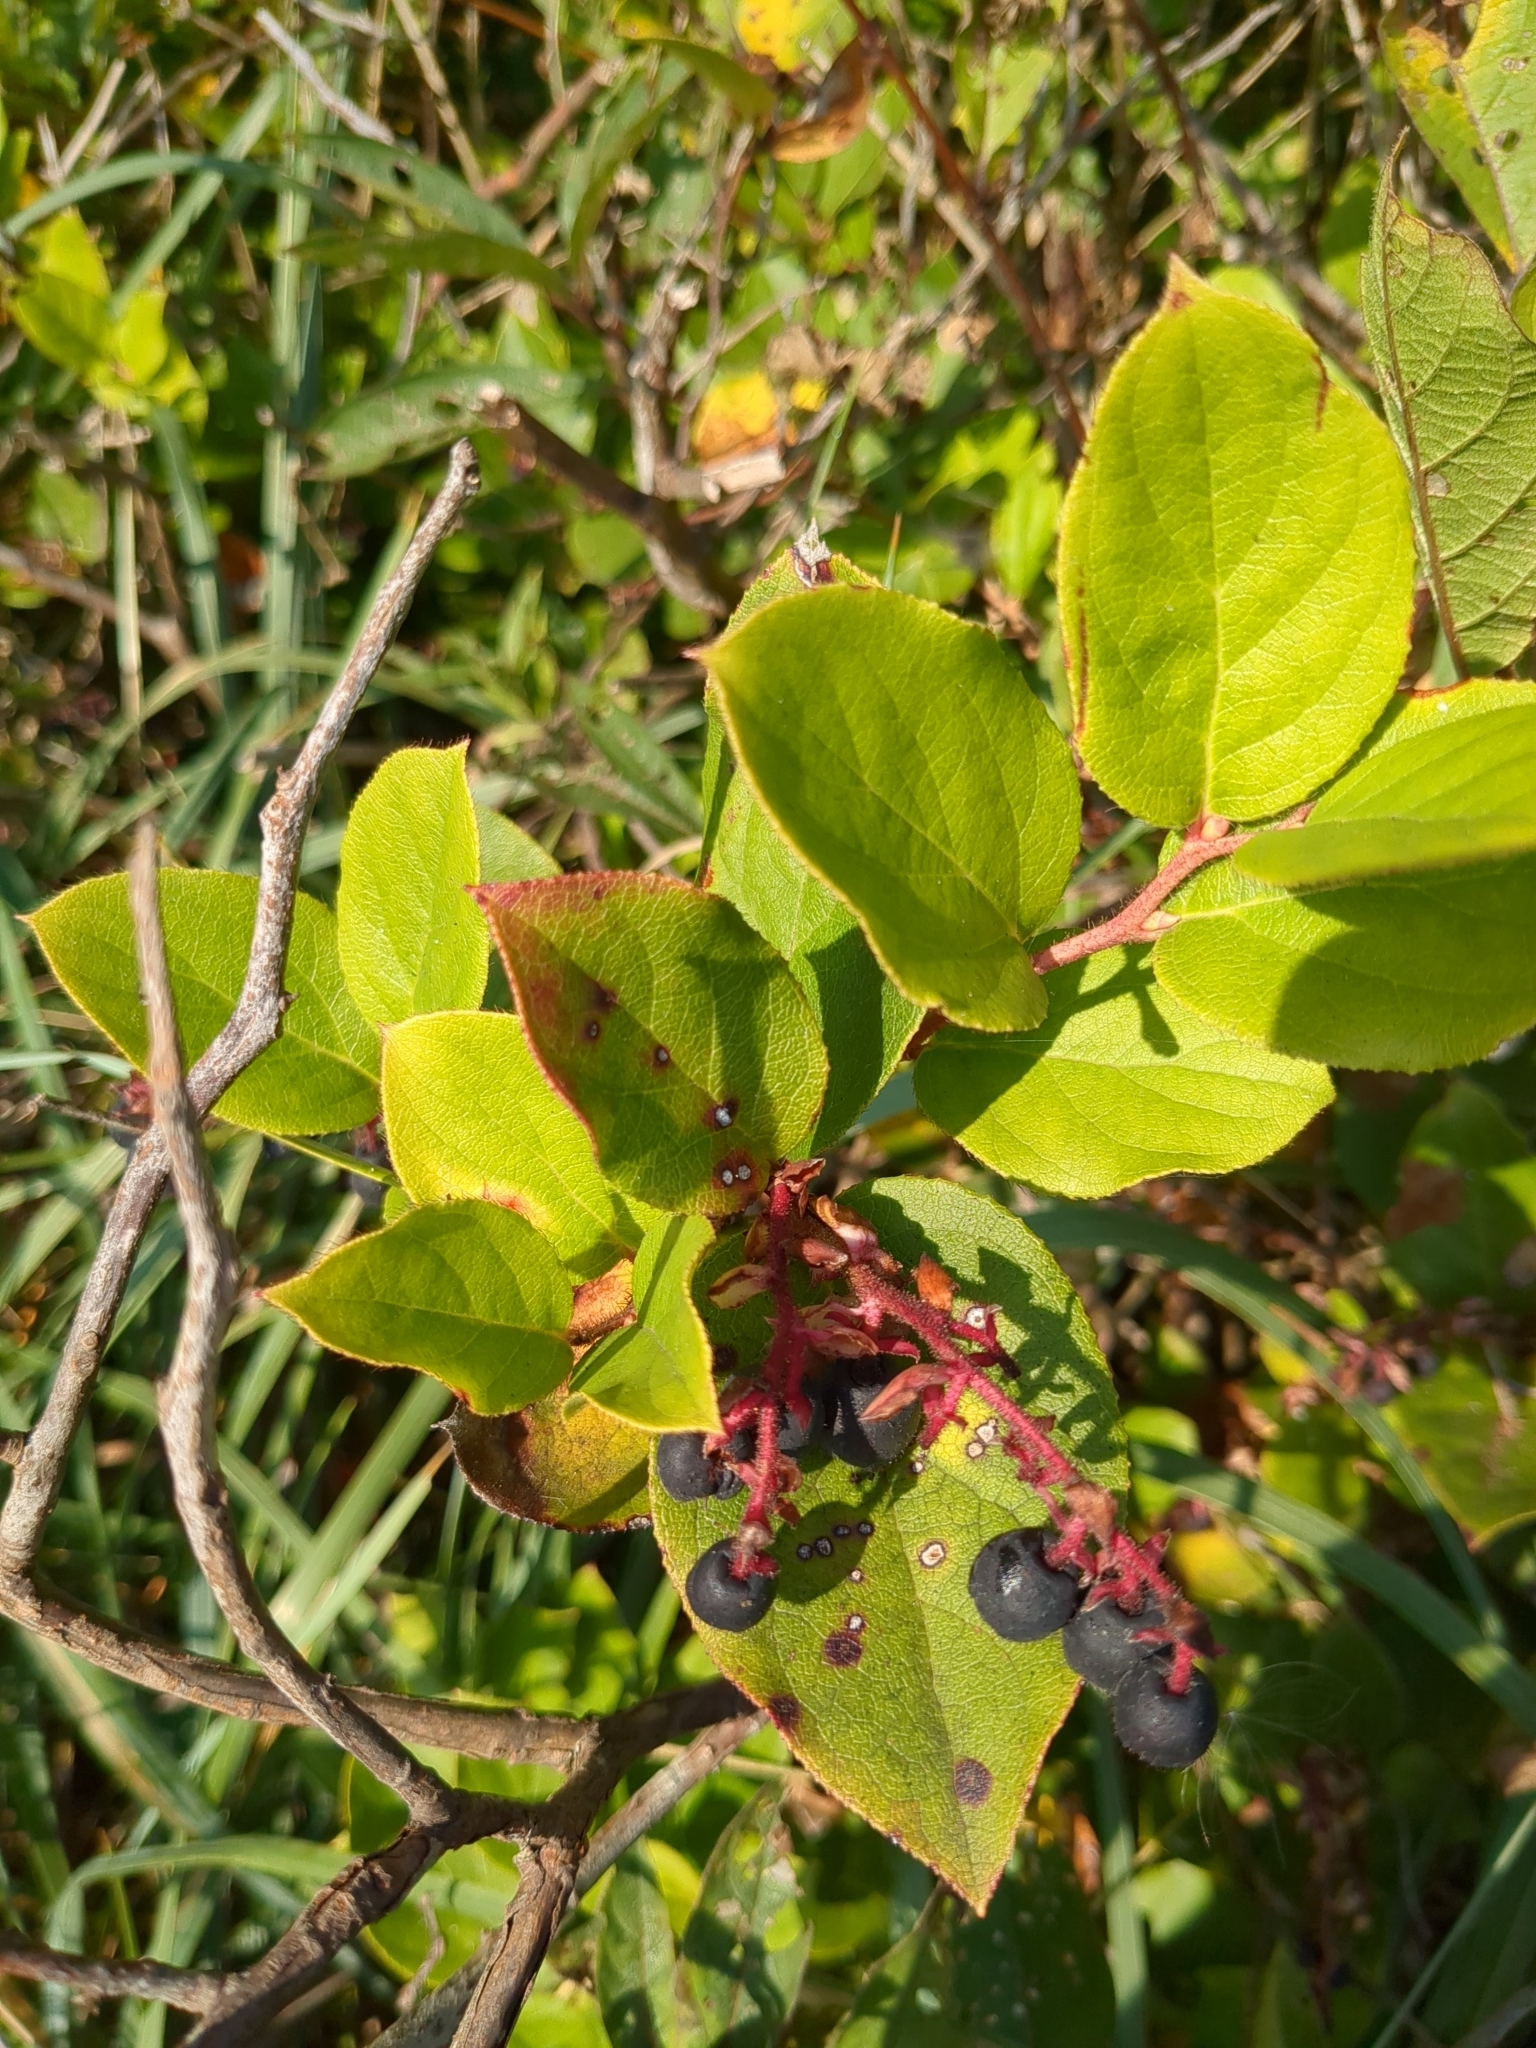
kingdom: Plantae
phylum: Tracheophyta
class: Magnoliopsida
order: Ericales
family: Ericaceae
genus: Gaultheria
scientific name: Gaultheria shallon
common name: Shallon
